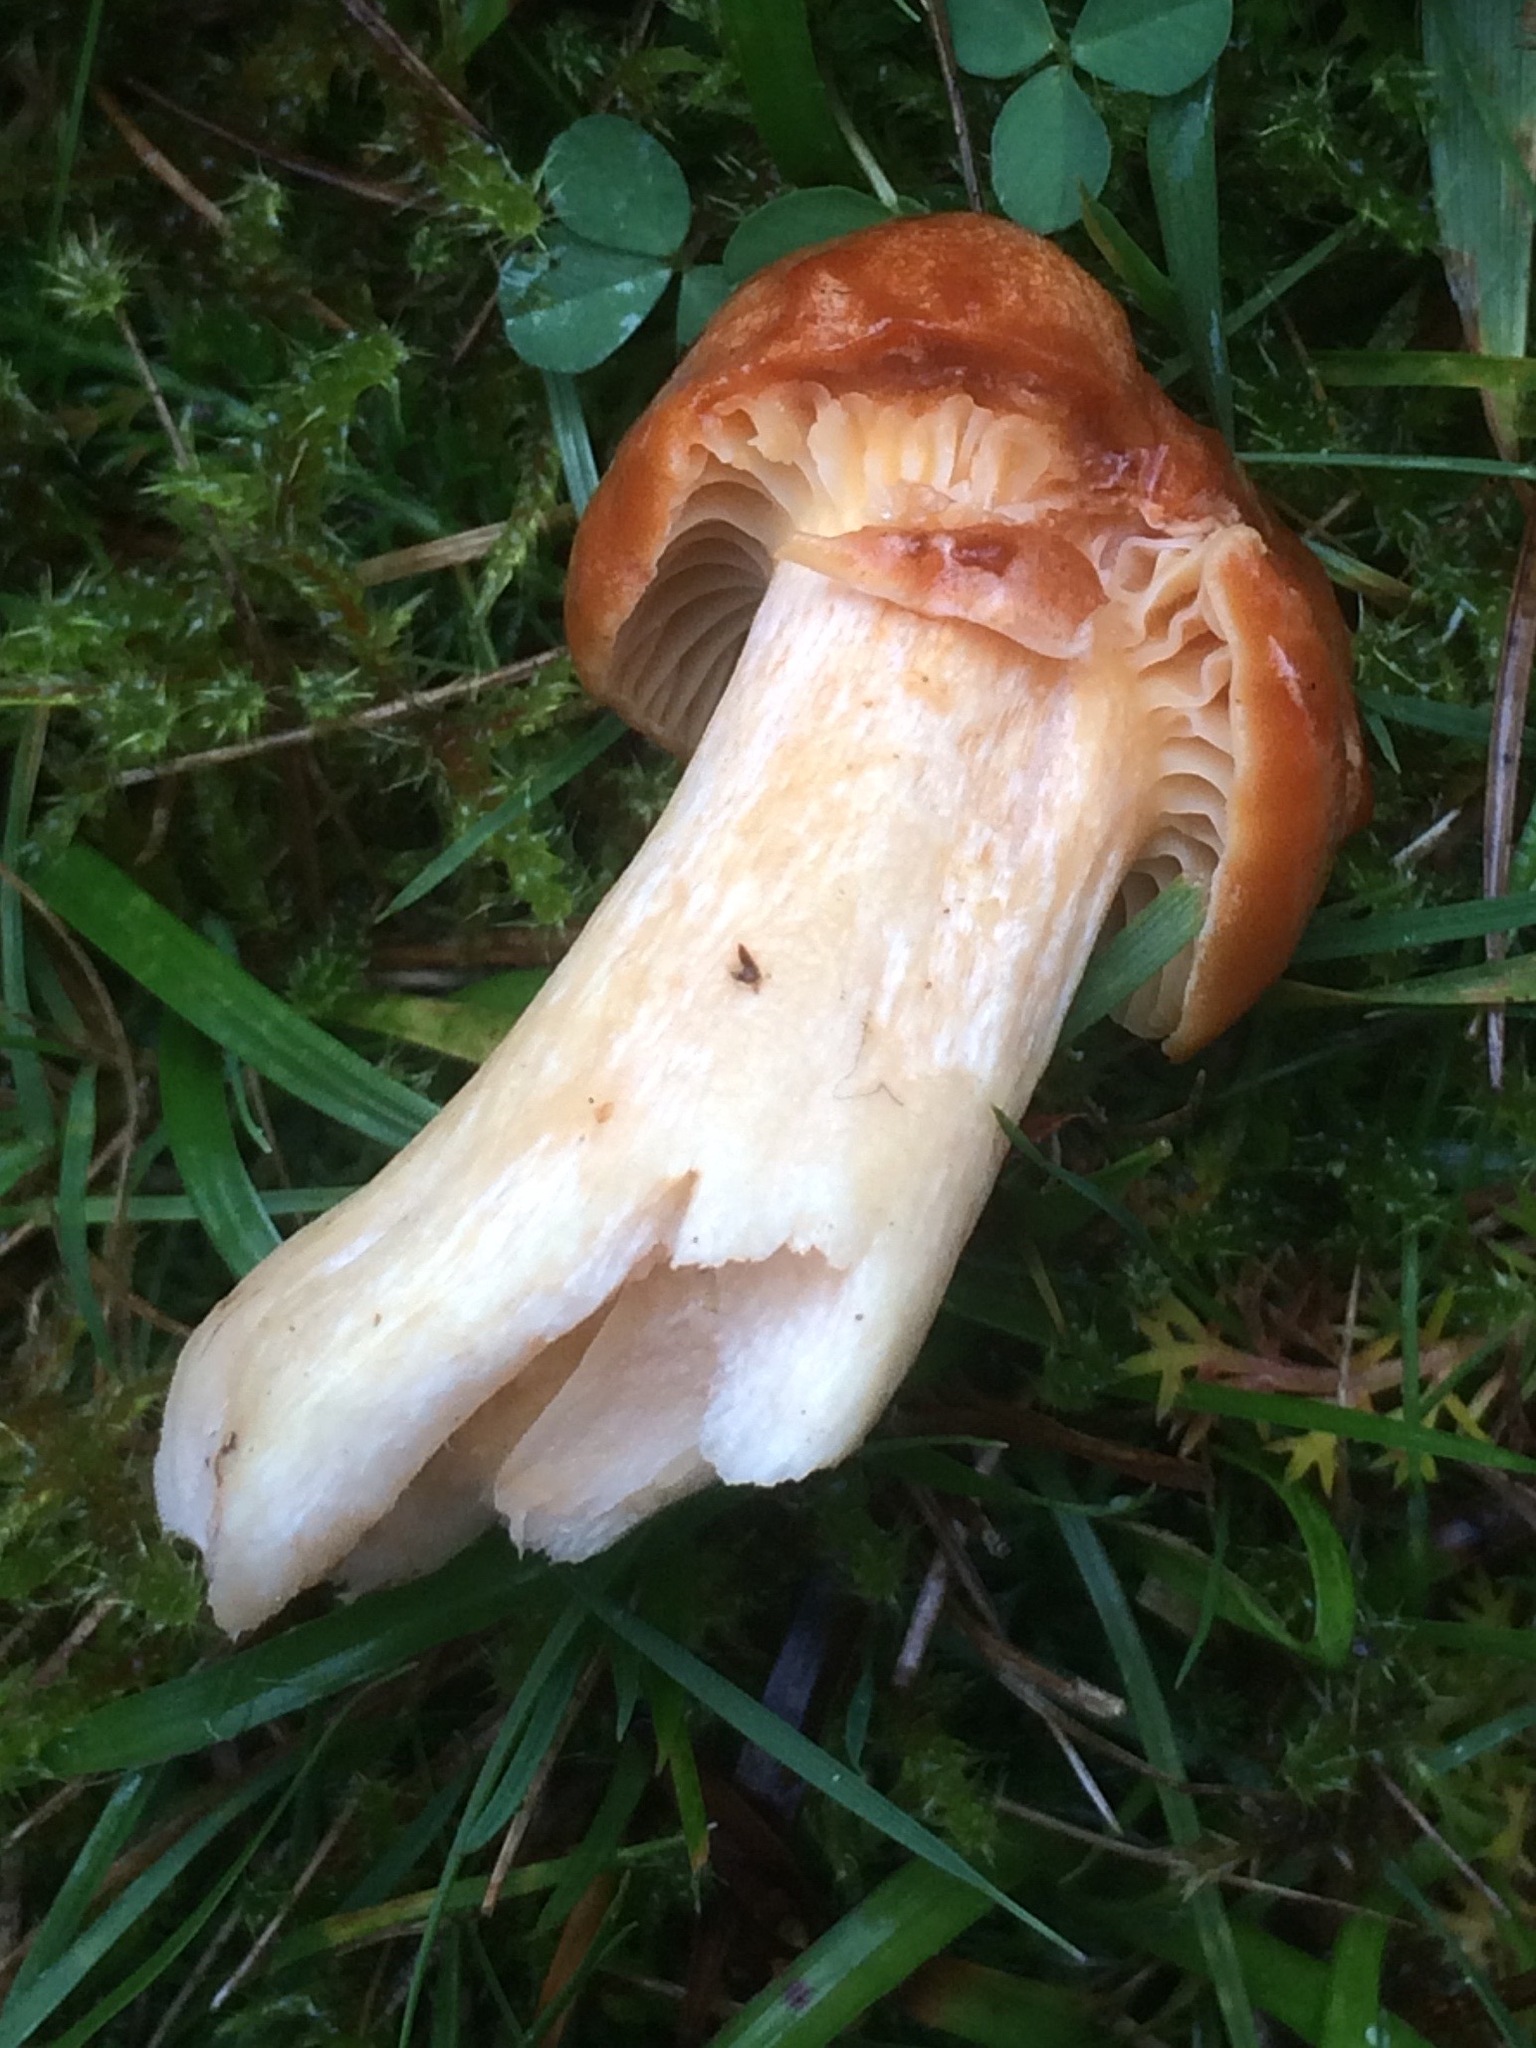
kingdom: Fungi
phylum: Basidiomycota
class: Agaricomycetes
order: Agaricales
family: Hygrophoraceae
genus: Cuphophyllus
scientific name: Cuphophyllus pratensis
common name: Meadow waxcap
